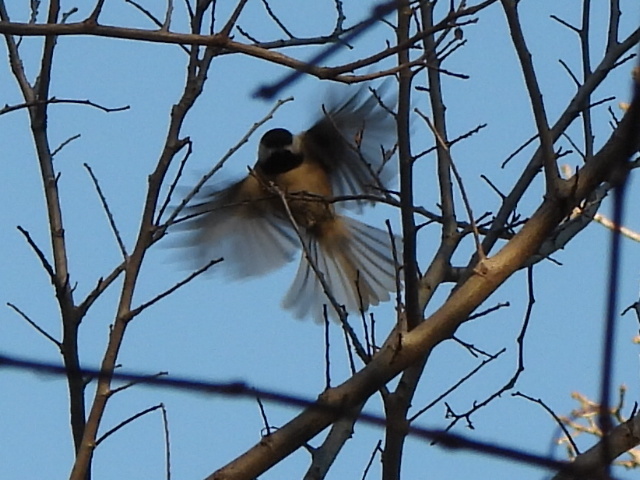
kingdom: Animalia
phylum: Chordata
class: Aves
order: Passeriformes
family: Paridae
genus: Poecile
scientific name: Poecile carolinensis
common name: Carolina chickadee
